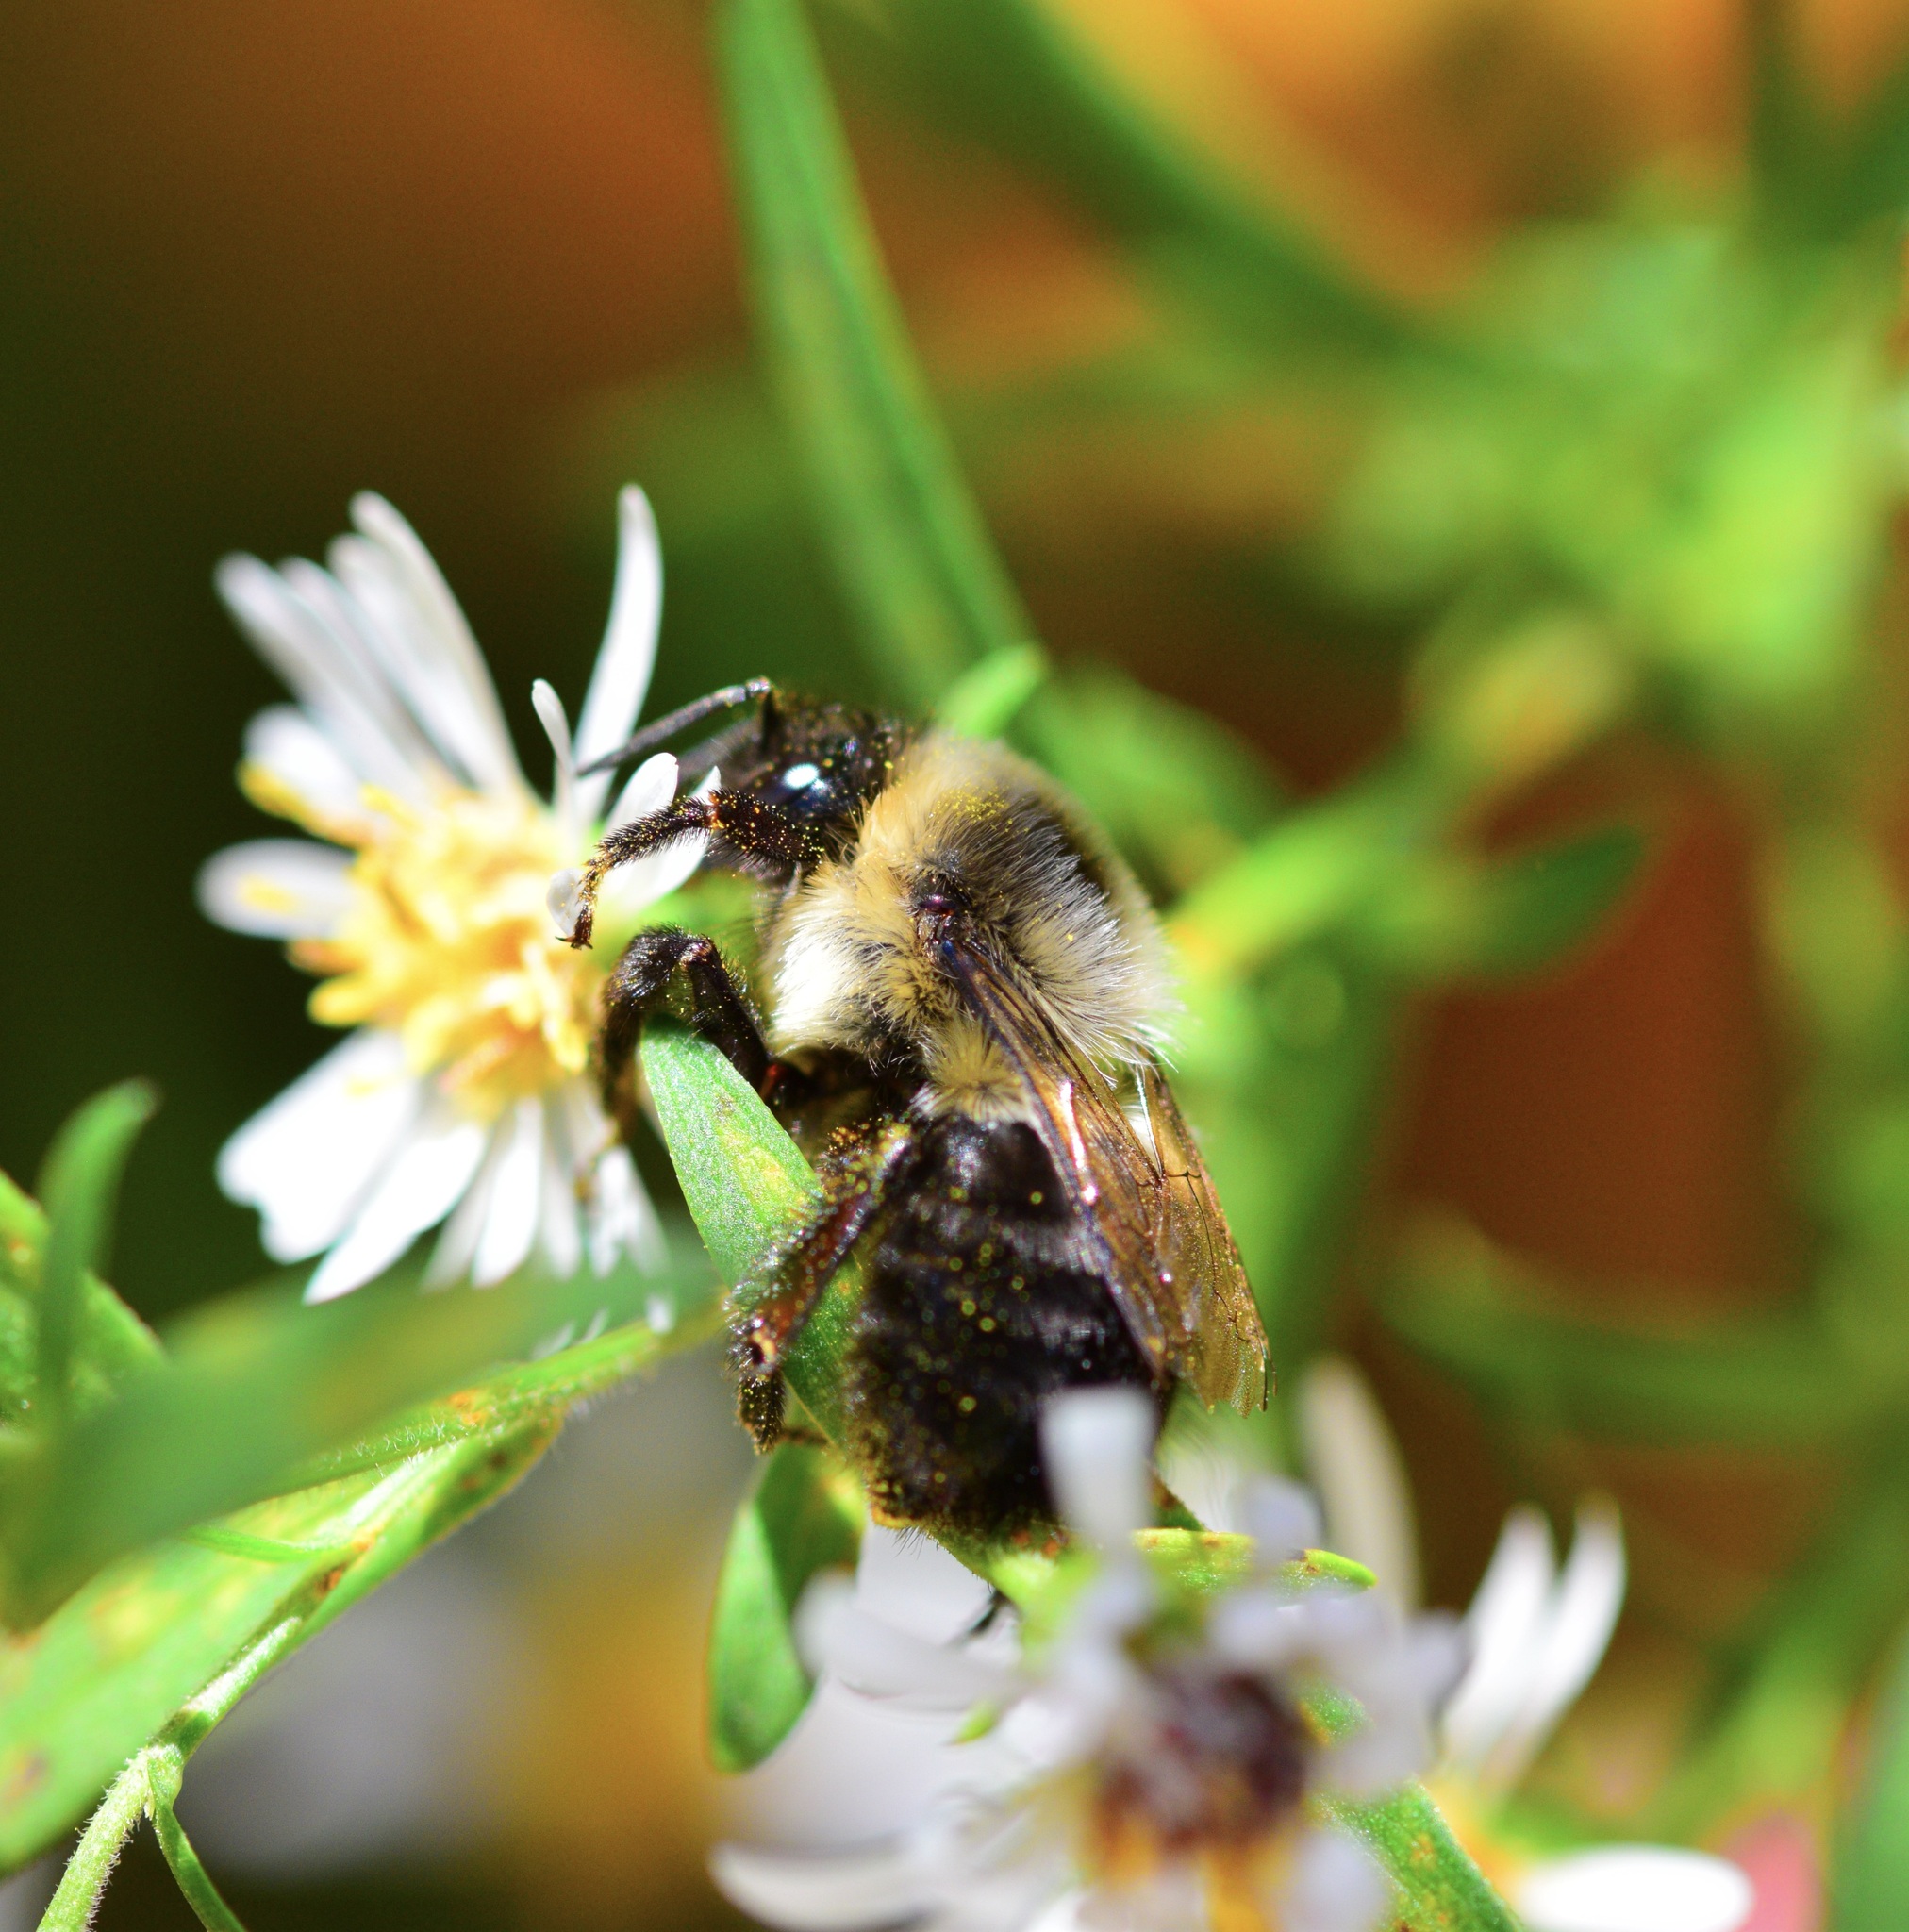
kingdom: Animalia
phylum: Arthropoda
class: Insecta
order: Hymenoptera
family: Apidae
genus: Bombus
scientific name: Bombus impatiens
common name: Common eastern bumble bee
